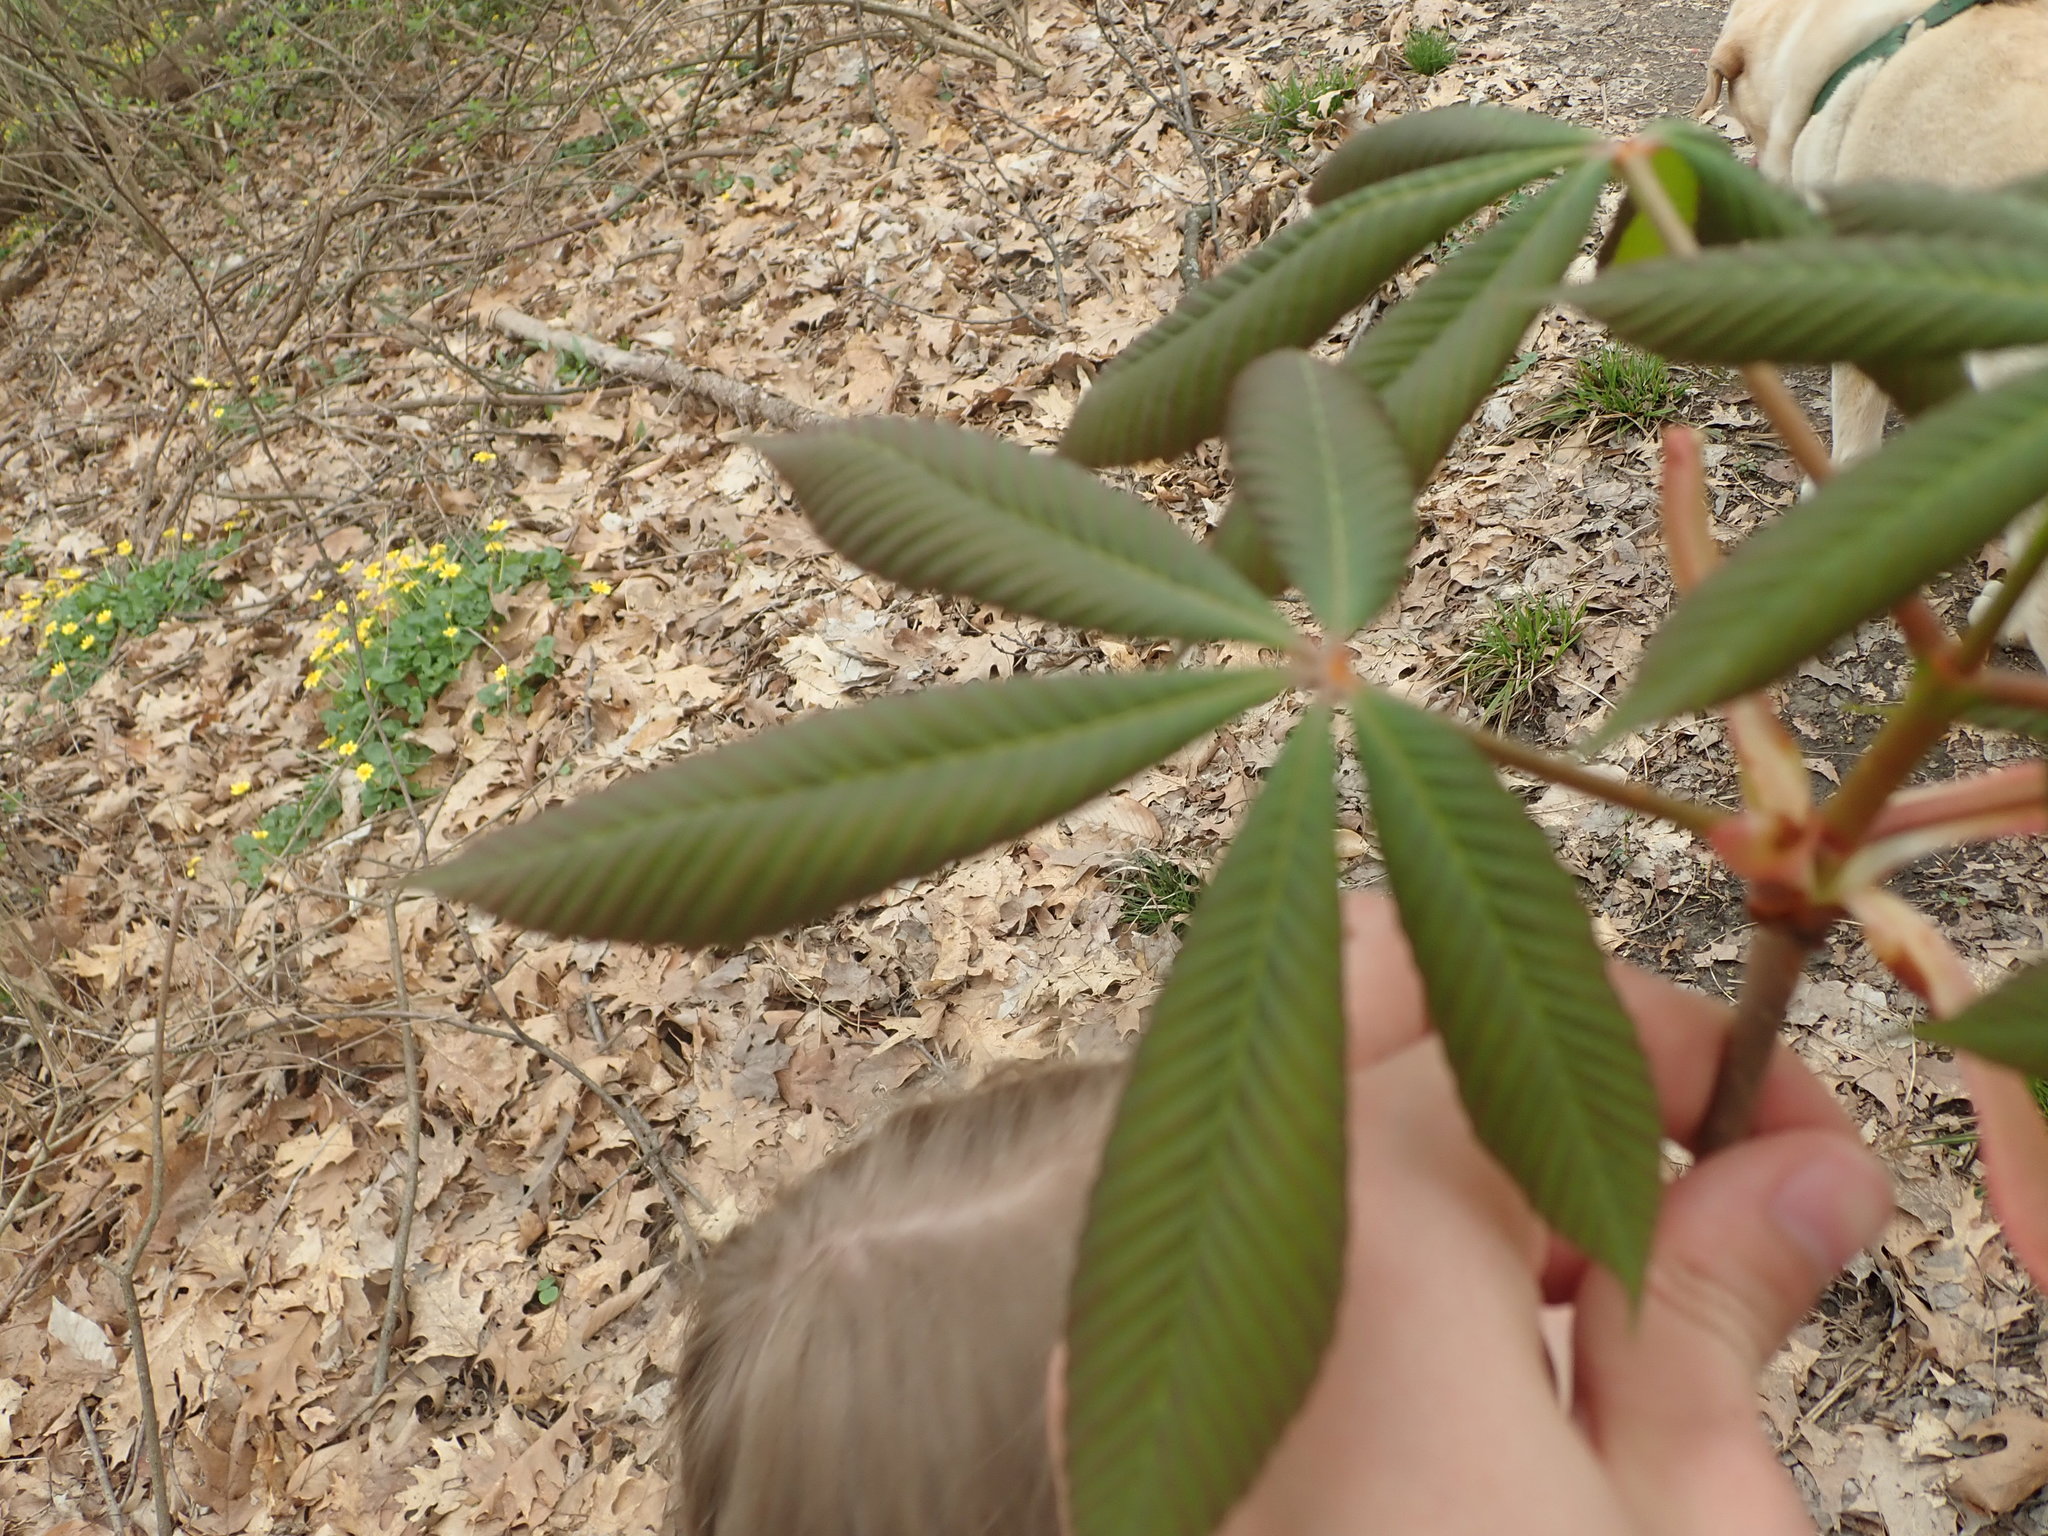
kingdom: Plantae
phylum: Tracheophyta
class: Magnoliopsida
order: Sapindales
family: Sapindaceae
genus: Aesculus
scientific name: Aesculus glabra
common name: Ohio buckeye
